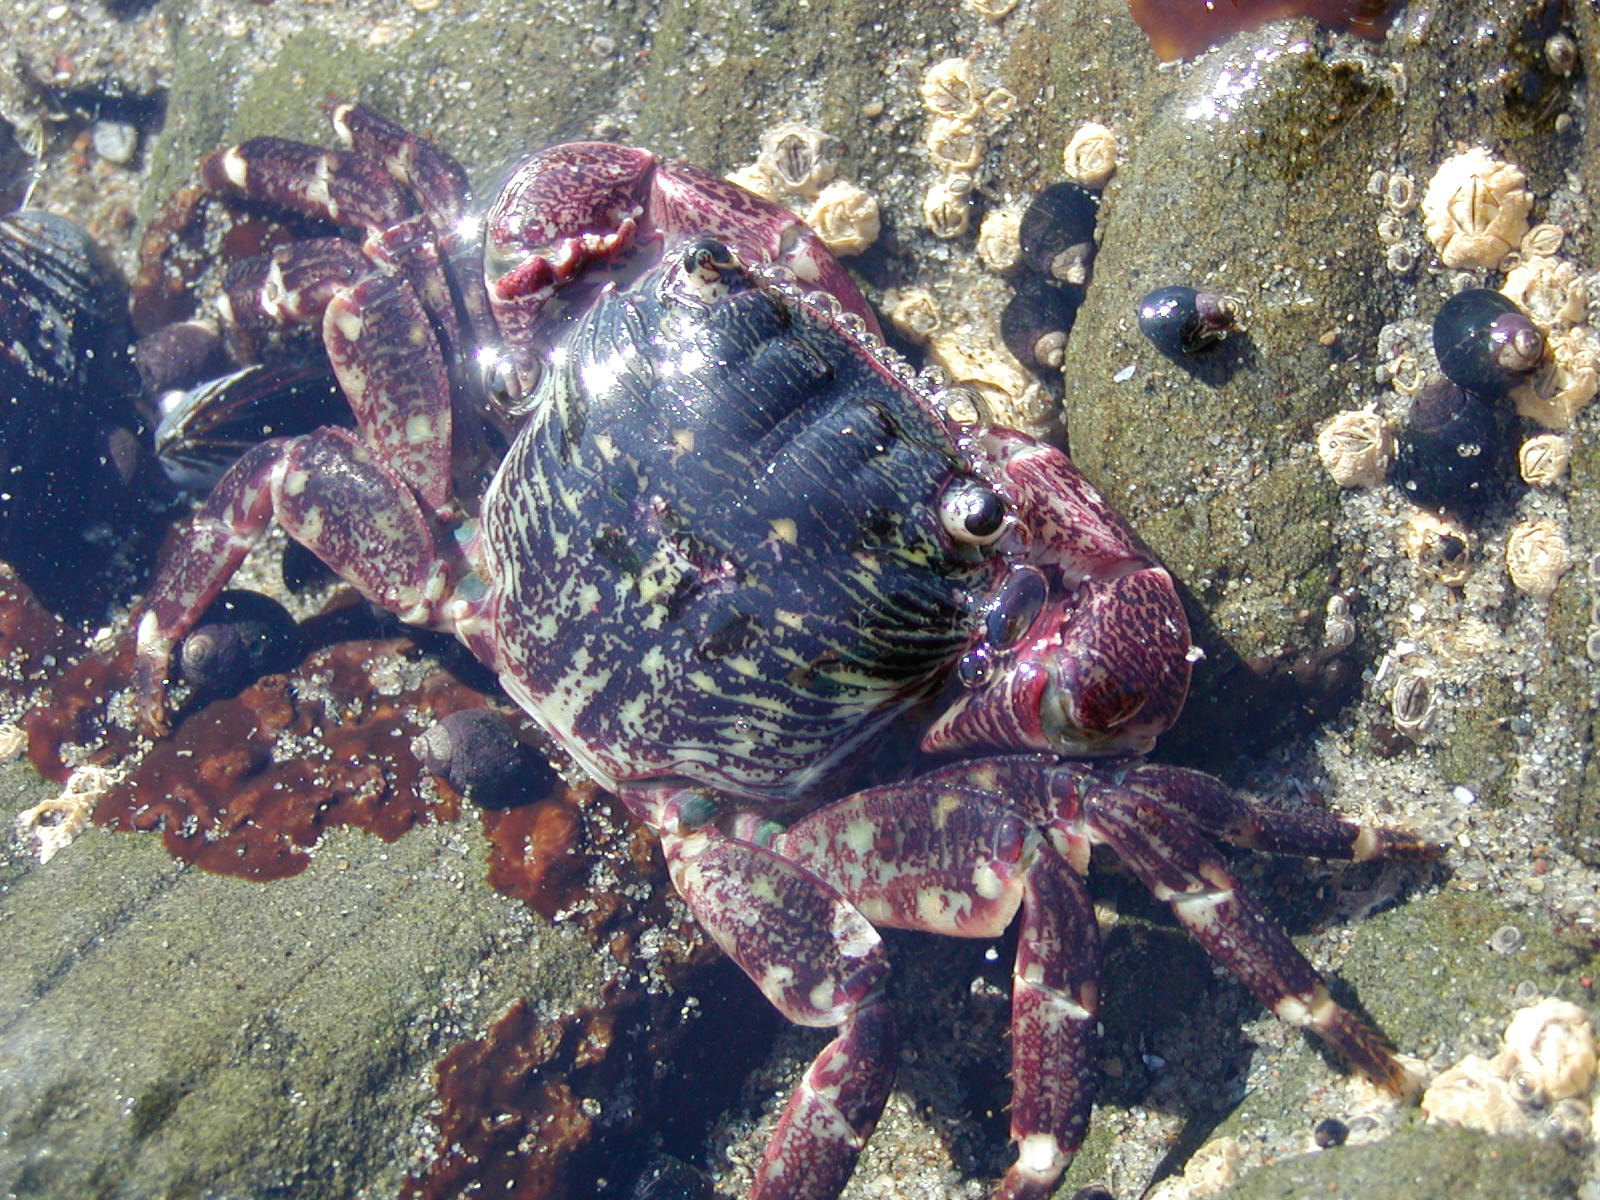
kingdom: Animalia
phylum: Arthropoda
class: Malacostraca
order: Decapoda
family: Grapsidae
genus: Pachygrapsus
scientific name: Pachygrapsus crassipes
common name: Striped shore crab
